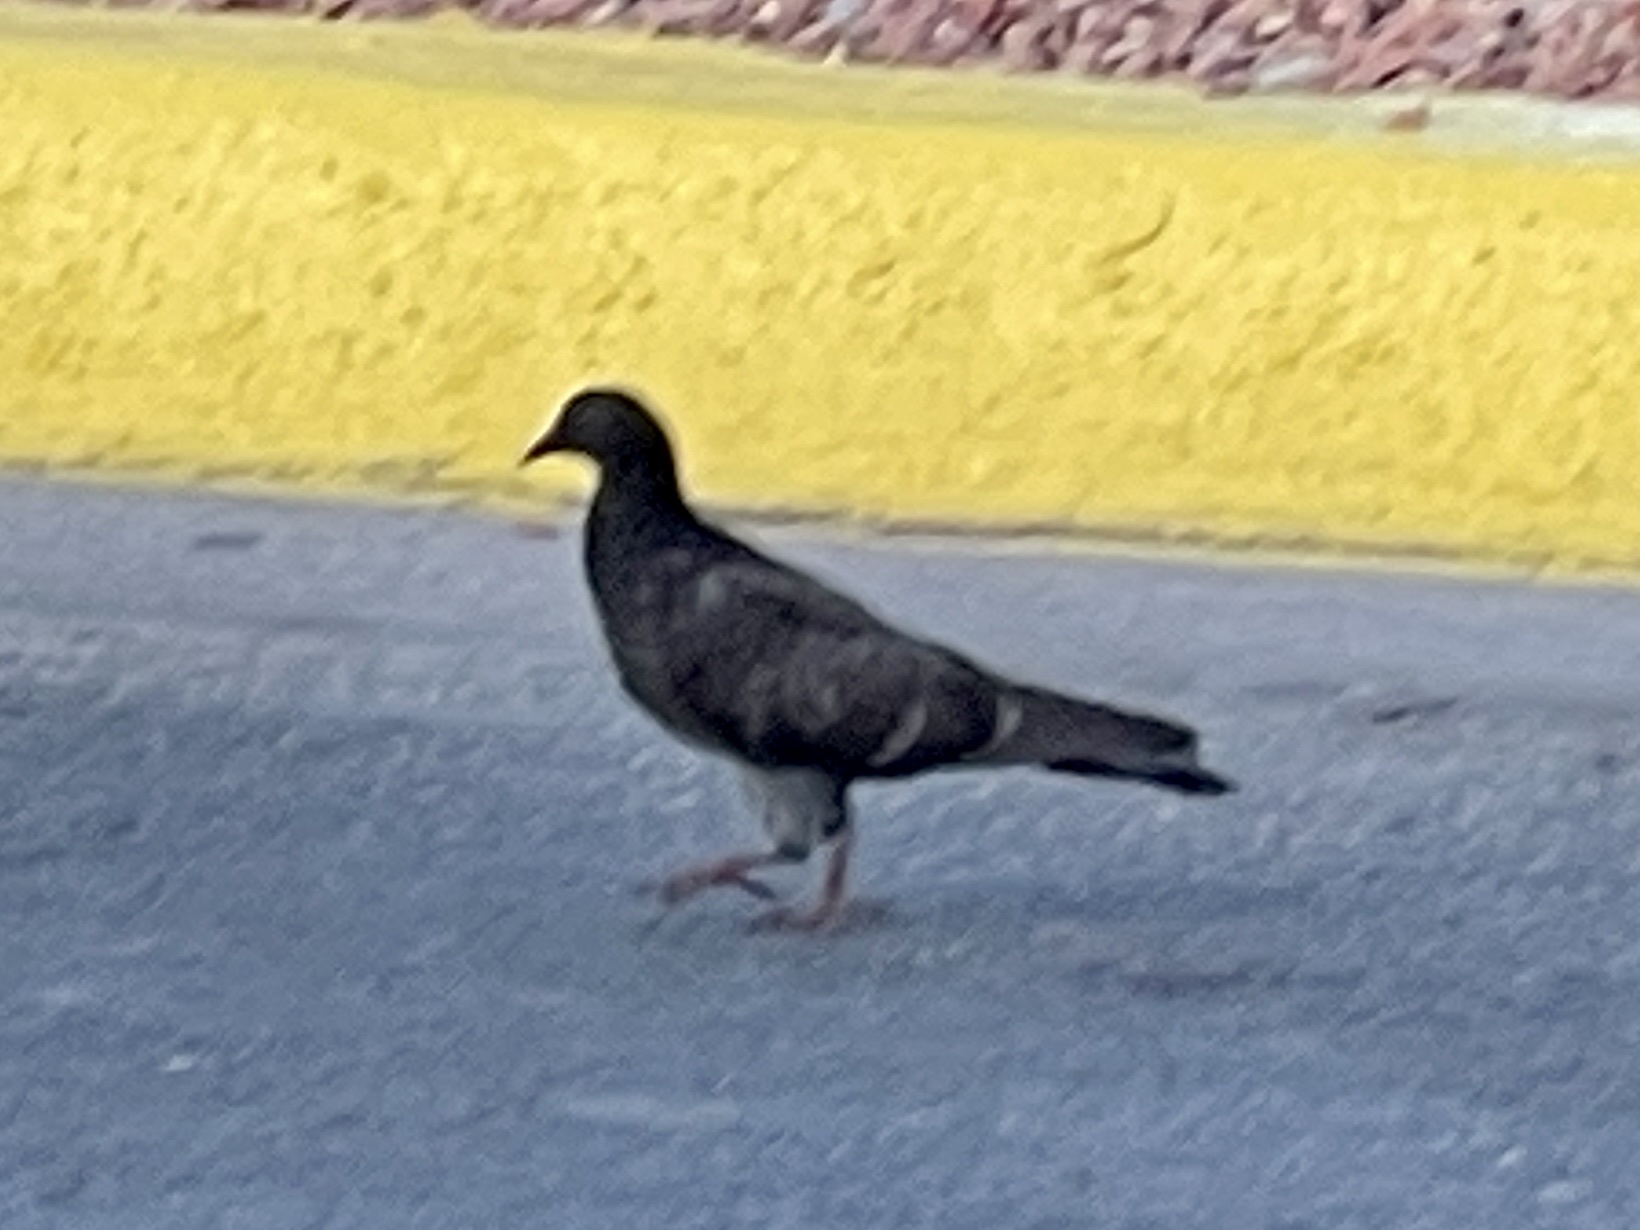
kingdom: Animalia
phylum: Chordata
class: Aves
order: Columbiformes
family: Columbidae
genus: Columba
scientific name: Columba livia
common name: Rock pigeon
